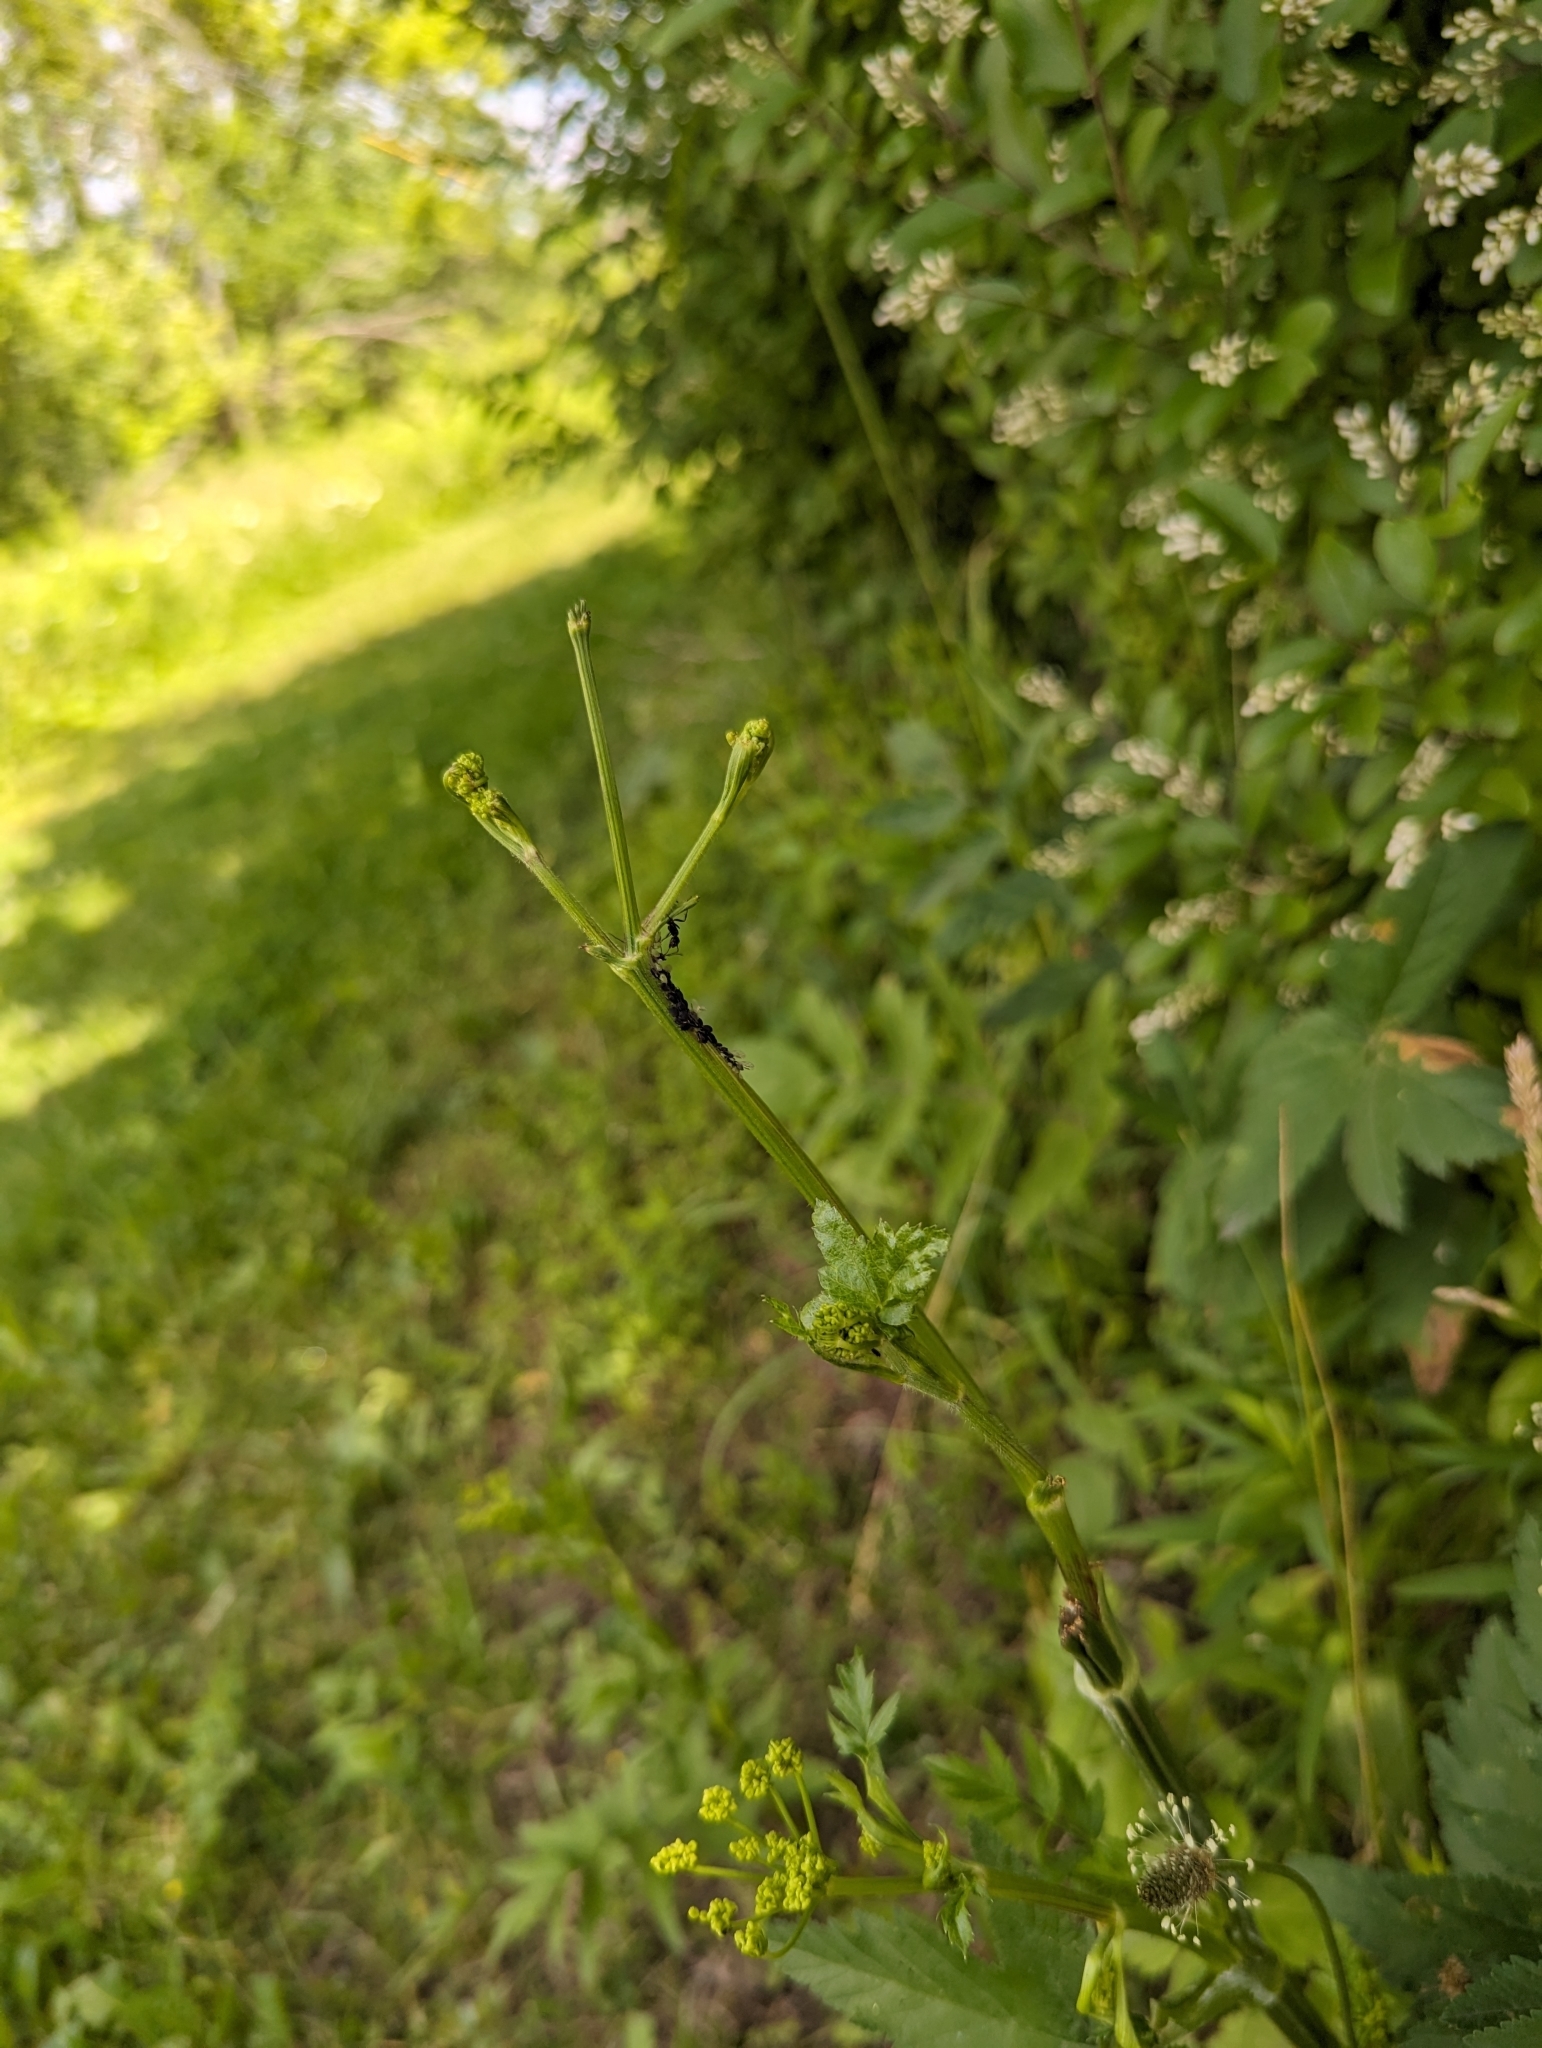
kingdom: Animalia
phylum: Arthropoda
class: Insecta
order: Hymenoptera
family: Formicidae
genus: Camponotus
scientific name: Camponotus pennsylvanicus
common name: Black carpenter ant
